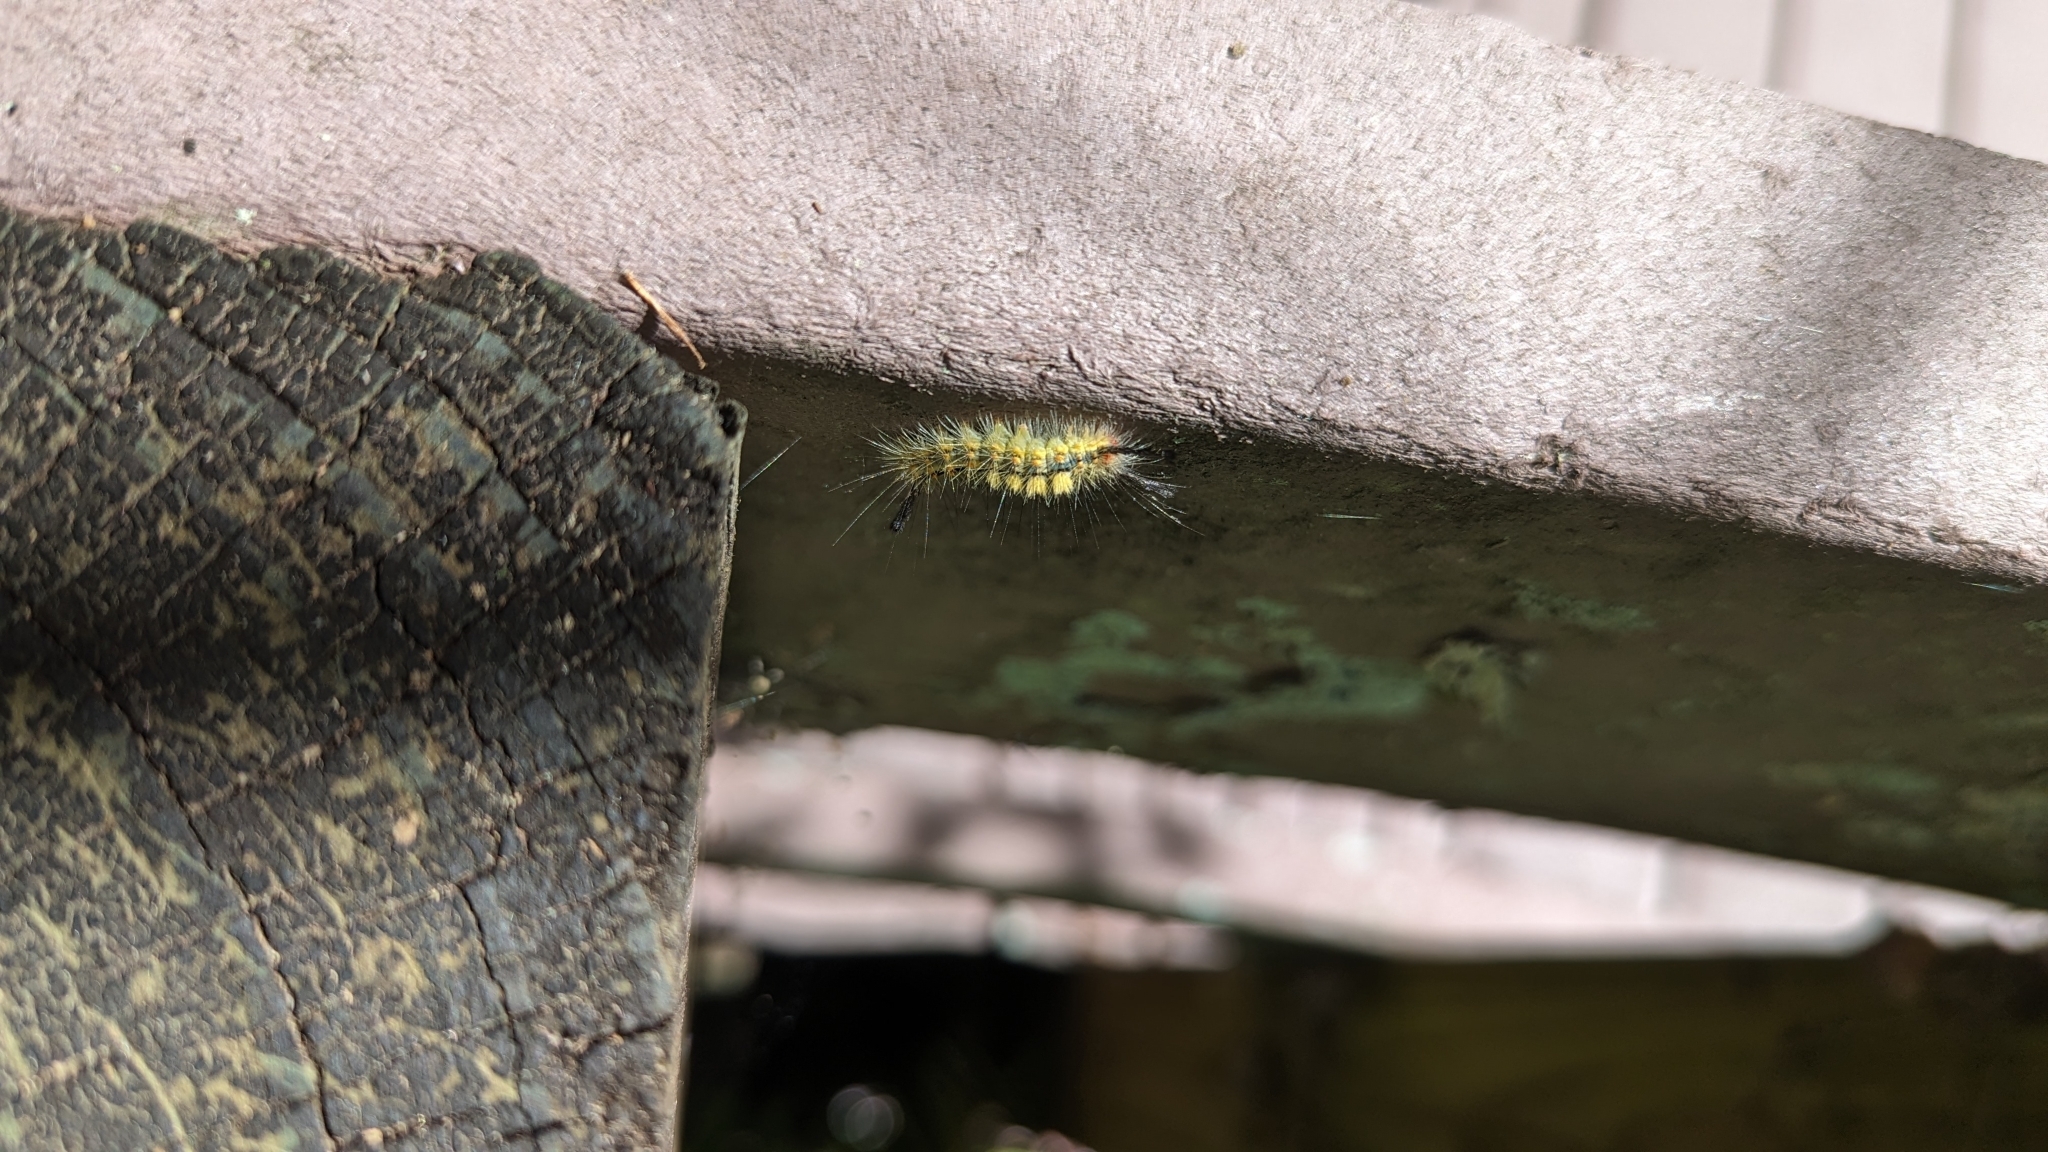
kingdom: Animalia
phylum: Arthropoda
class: Insecta
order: Lepidoptera
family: Erebidae
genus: Orgyia
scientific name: Orgyia detrita
